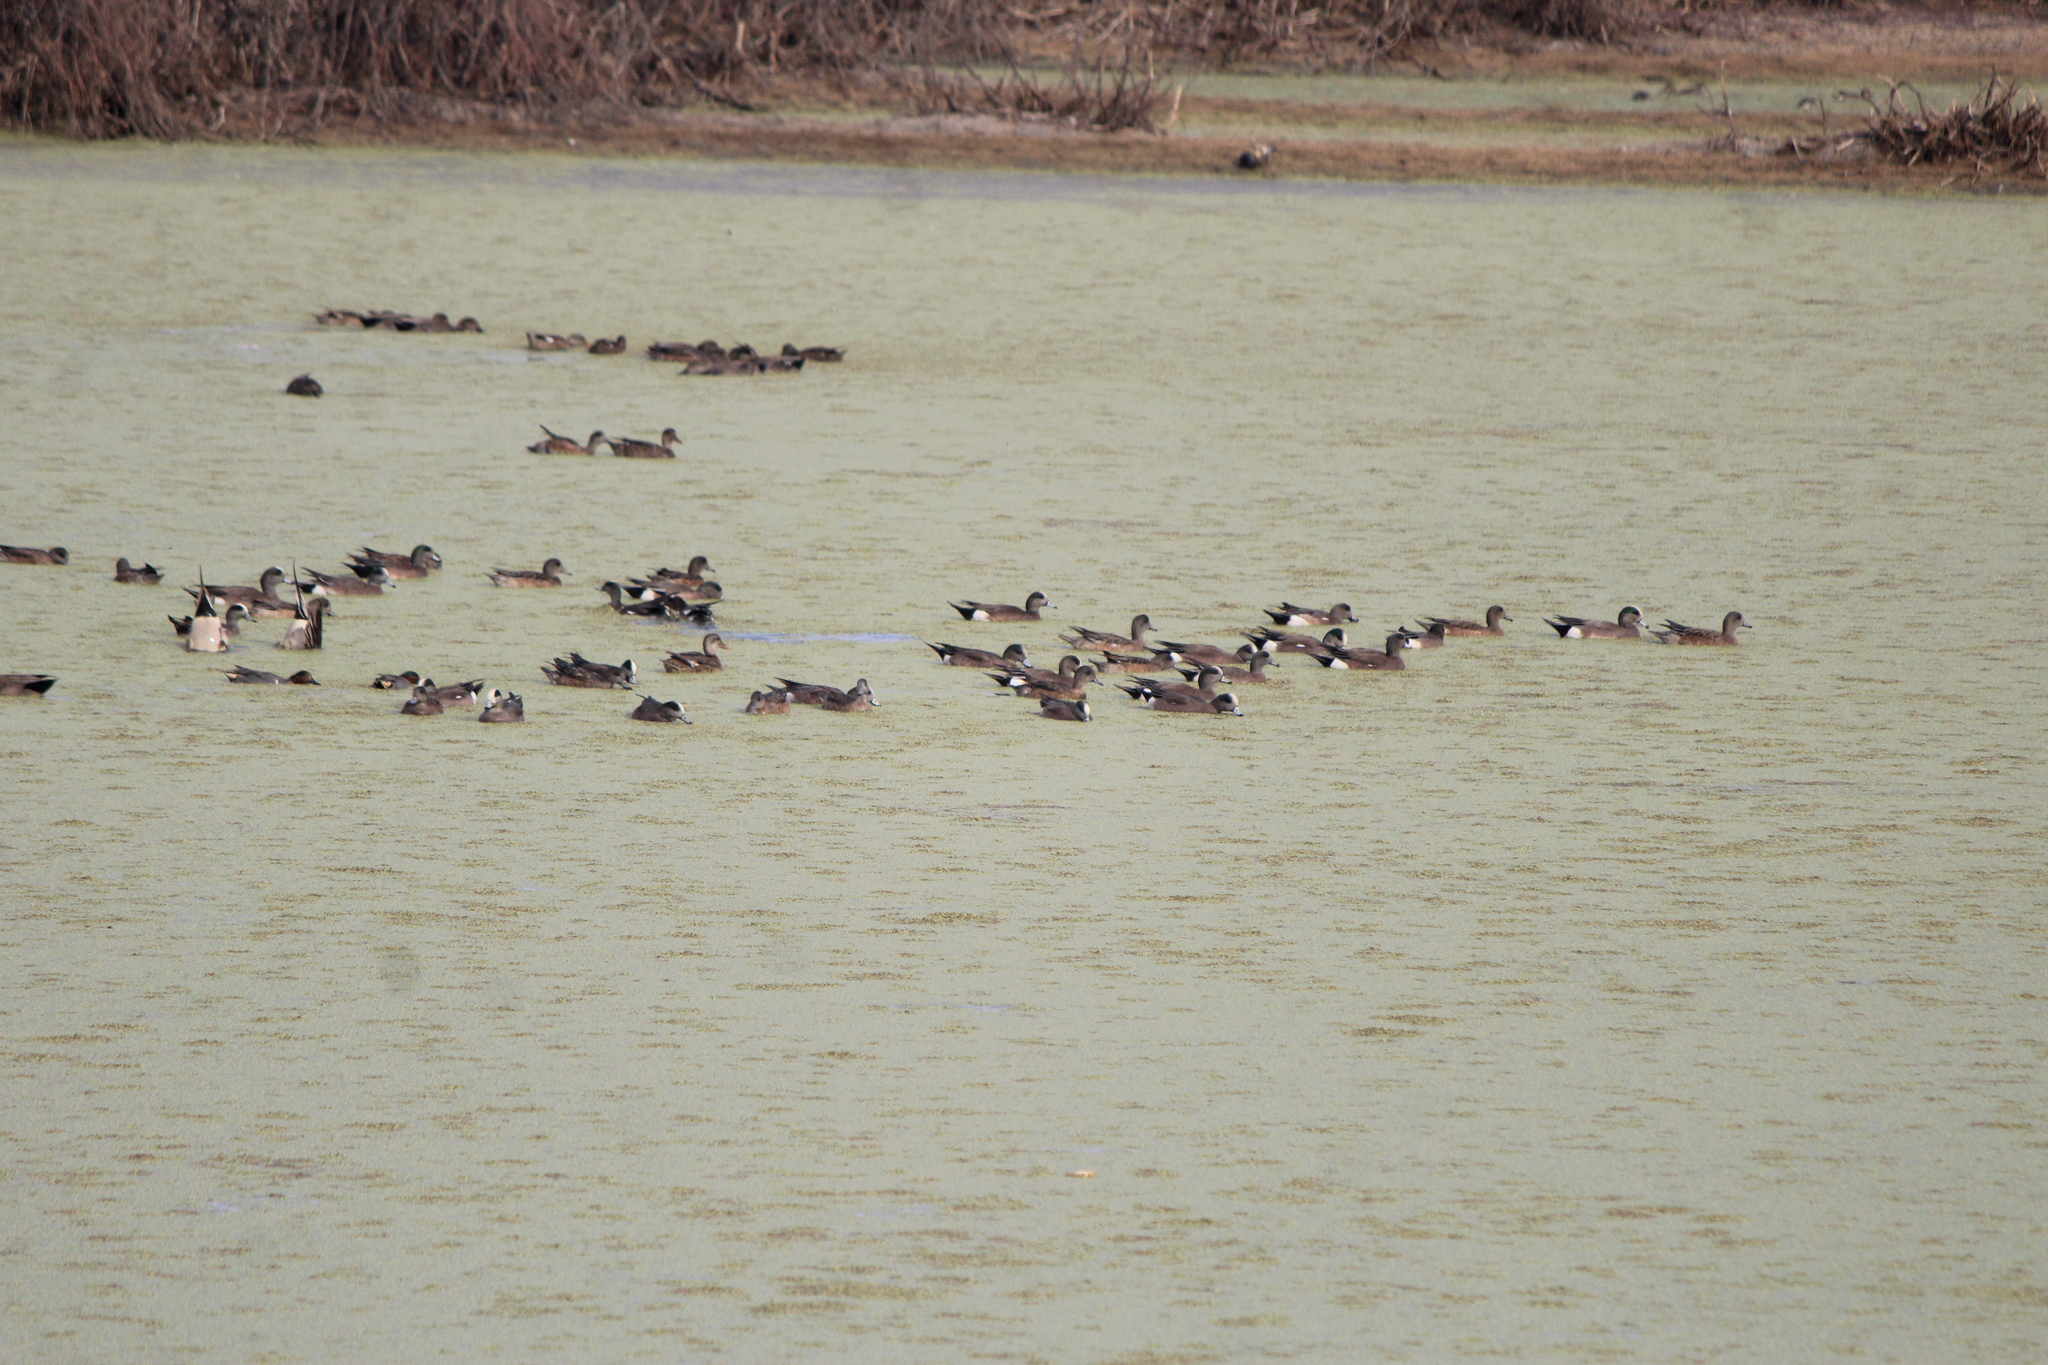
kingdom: Animalia
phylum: Chordata
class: Aves
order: Anseriformes
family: Anatidae
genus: Mareca
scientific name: Mareca americana
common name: American wigeon
